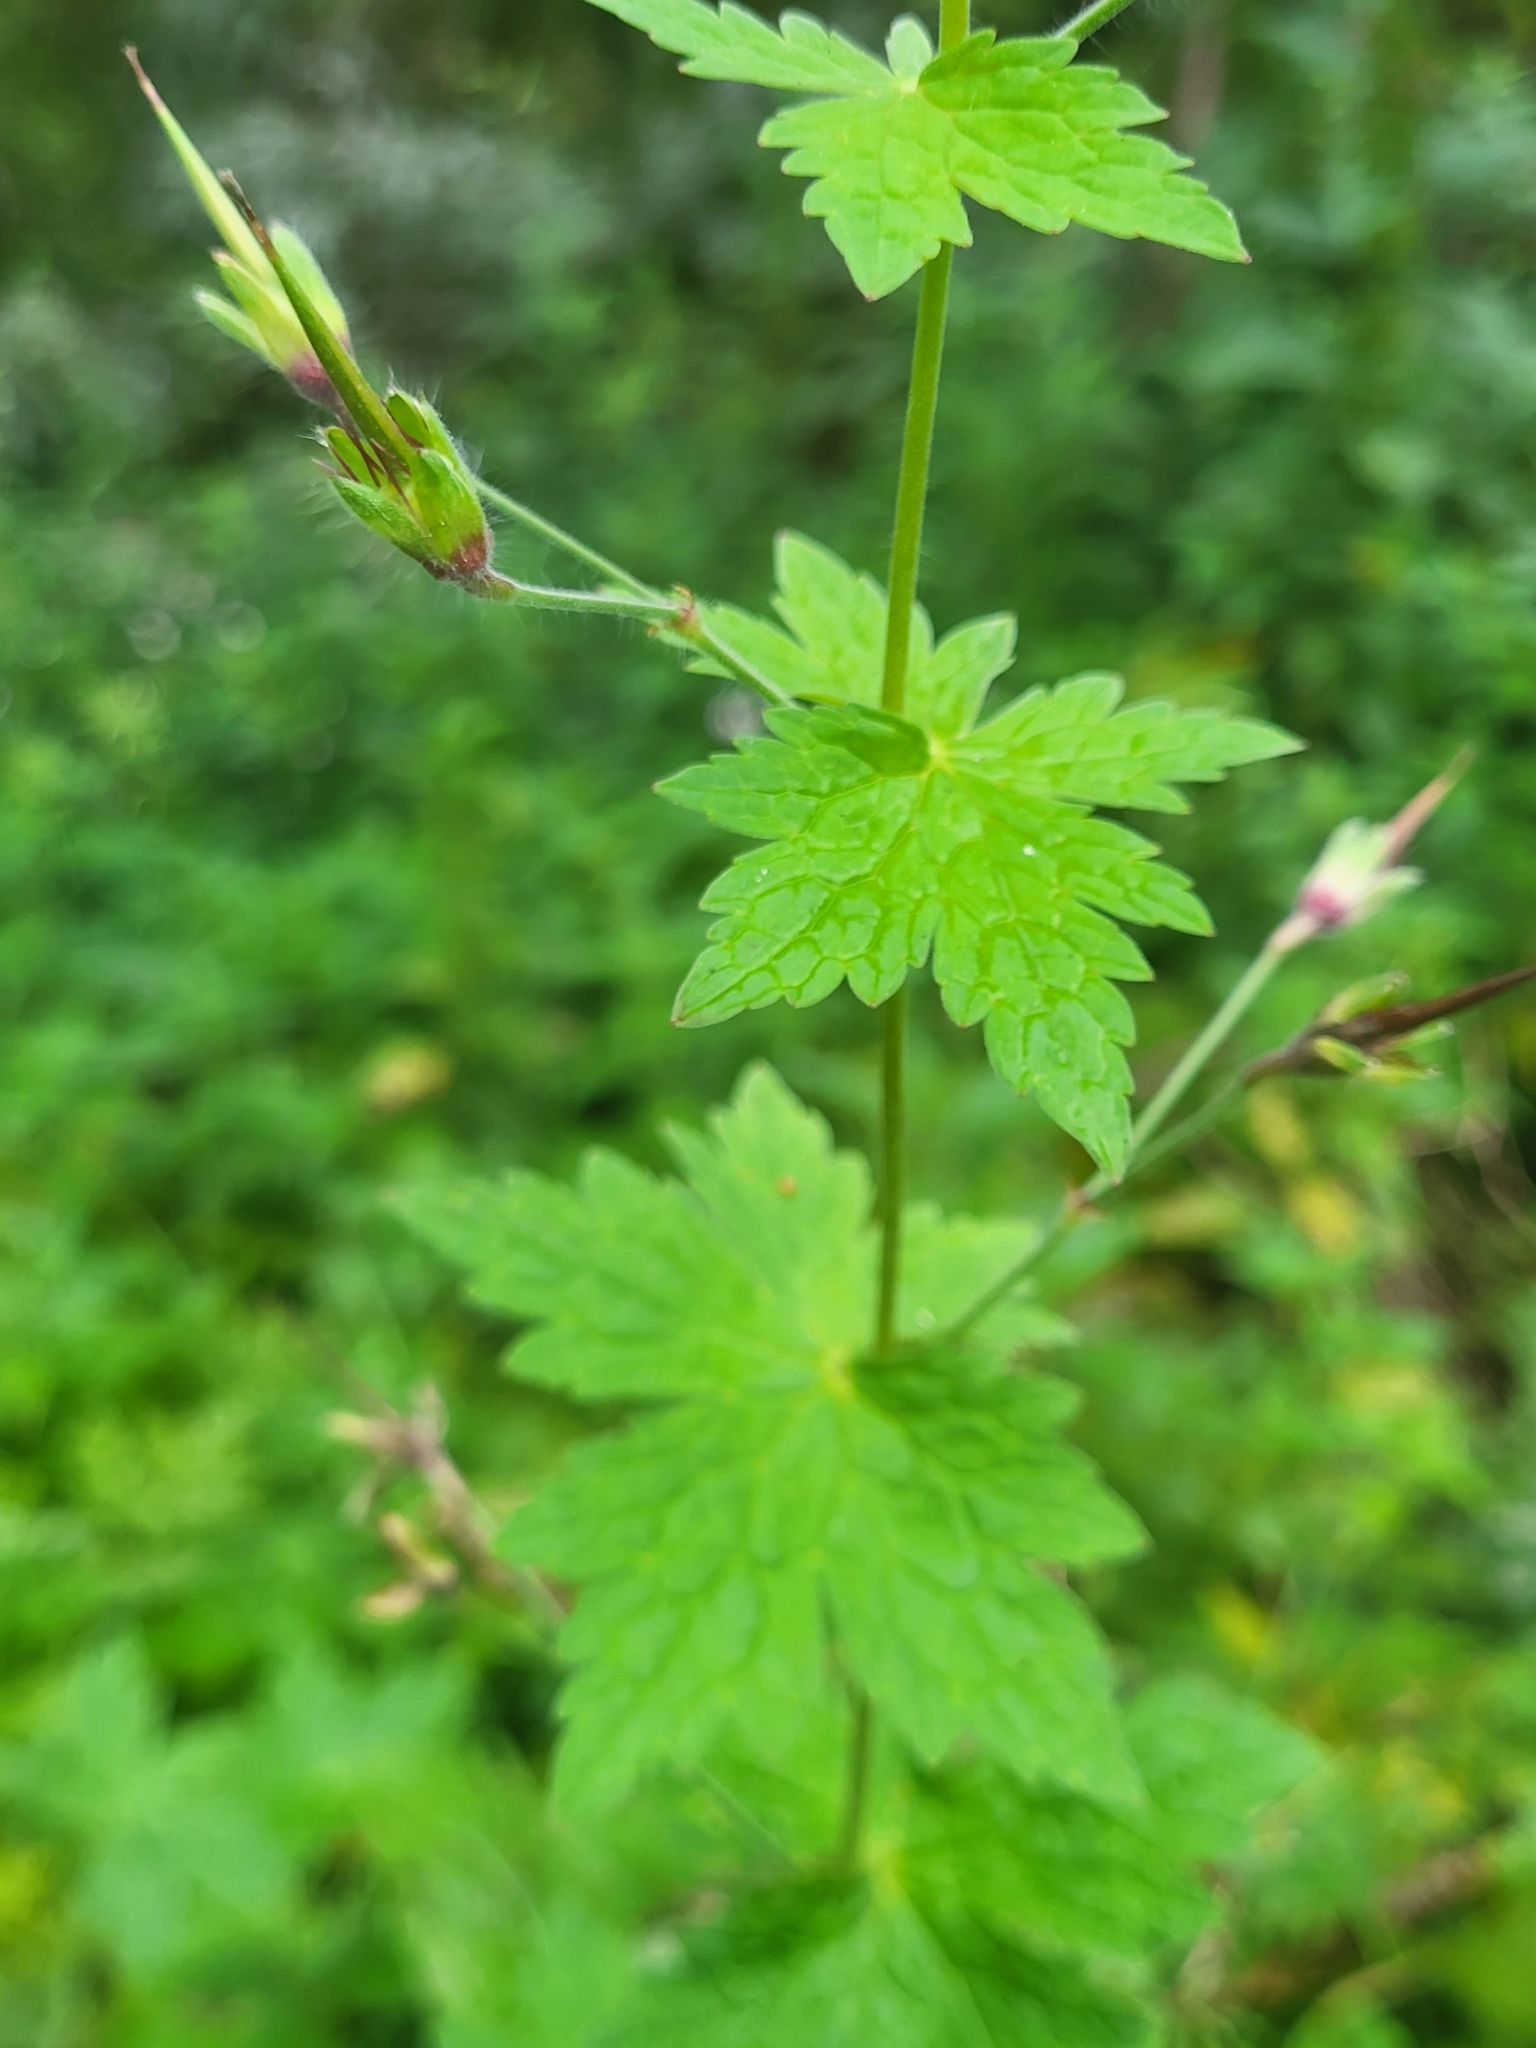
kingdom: Plantae
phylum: Tracheophyta
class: Magnoliopsida
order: Geraniales
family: Geraniaceae
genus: Geranium
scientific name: Geranium phaeum
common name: Dusky crane's-bill
